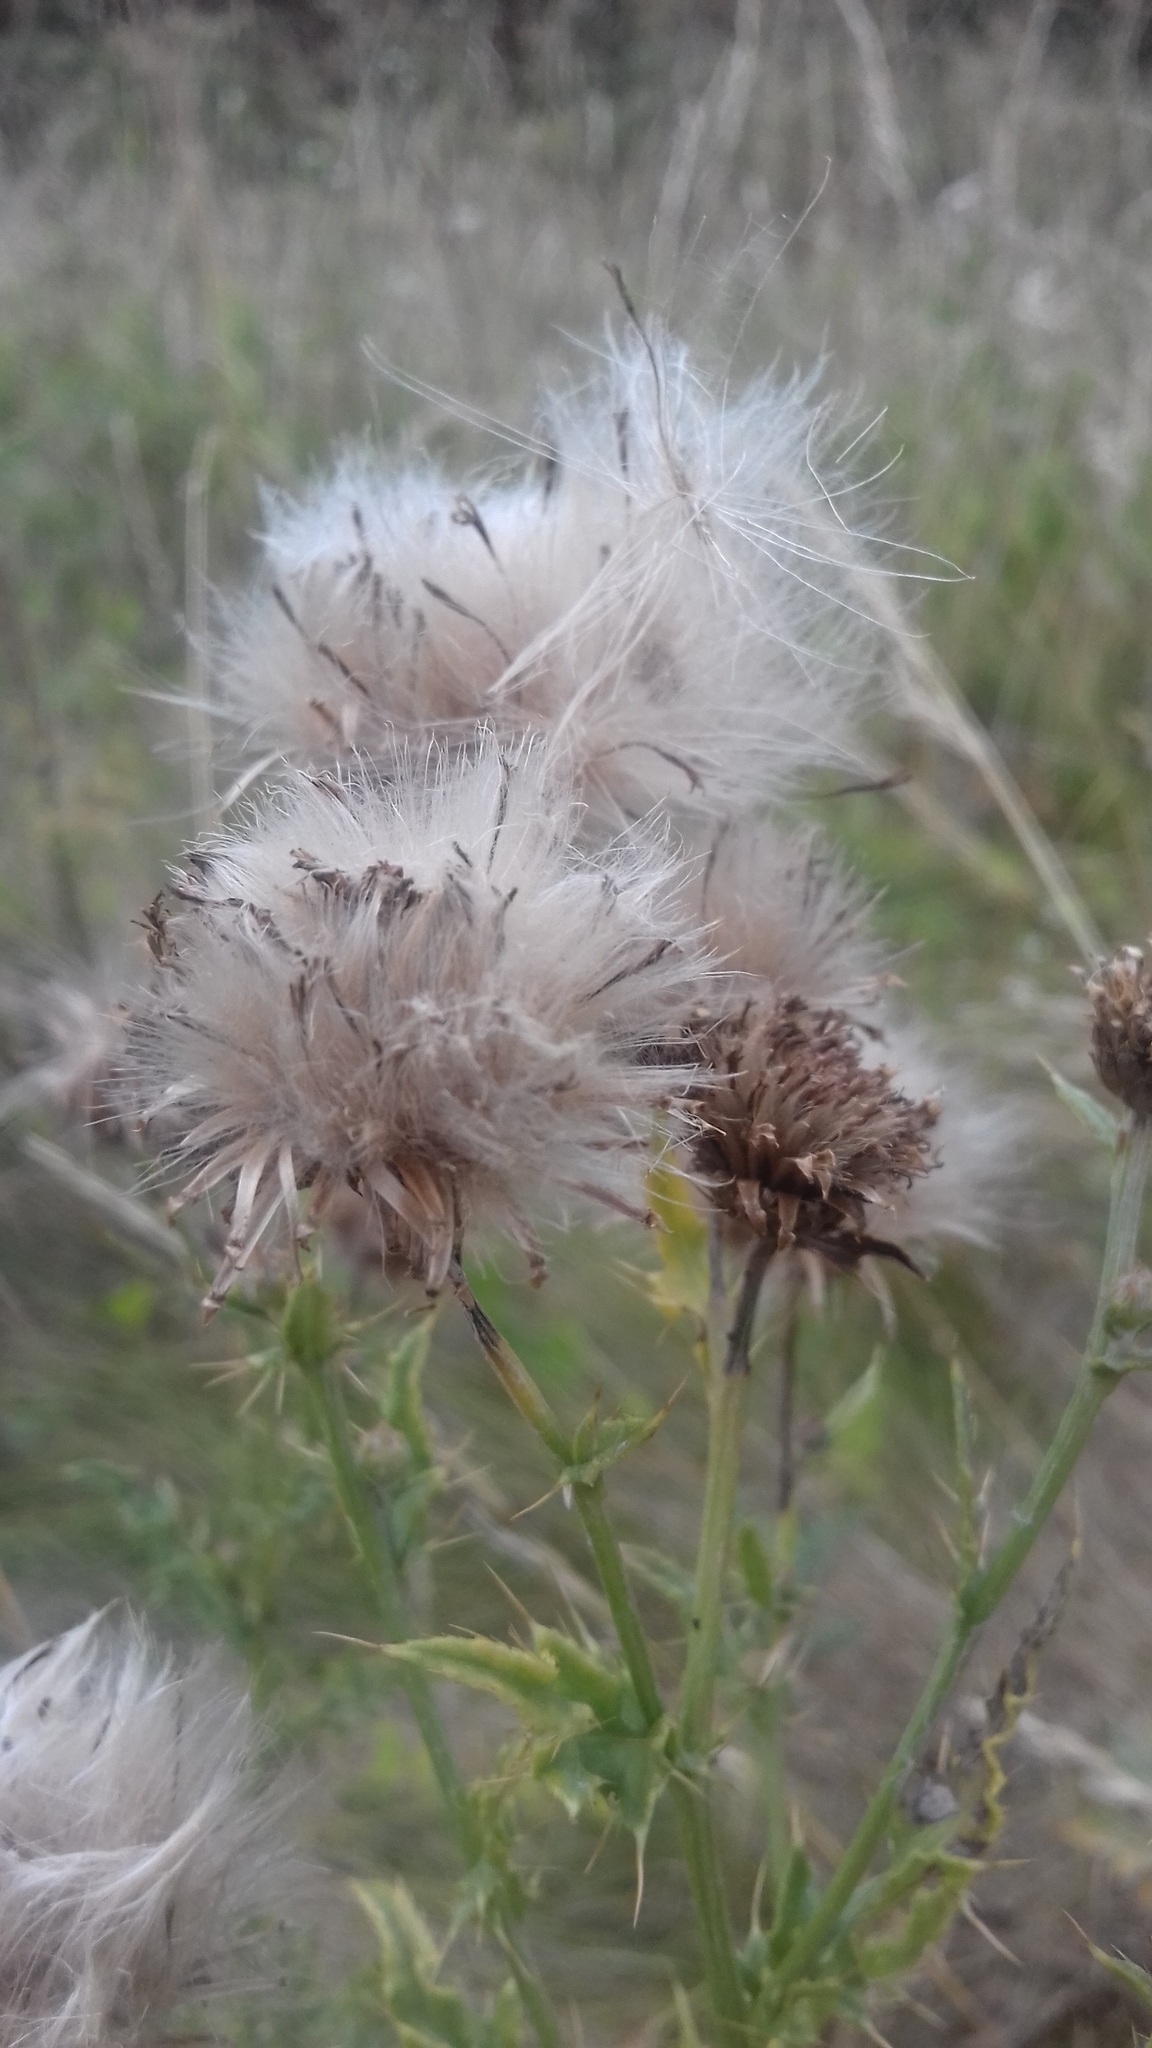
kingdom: Plantae
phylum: Tracheophyta
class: Magnoliopsida
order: Asterales
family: Asteraceae
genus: Cirsium
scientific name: Cirsium arvense
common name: Creeping thistle
